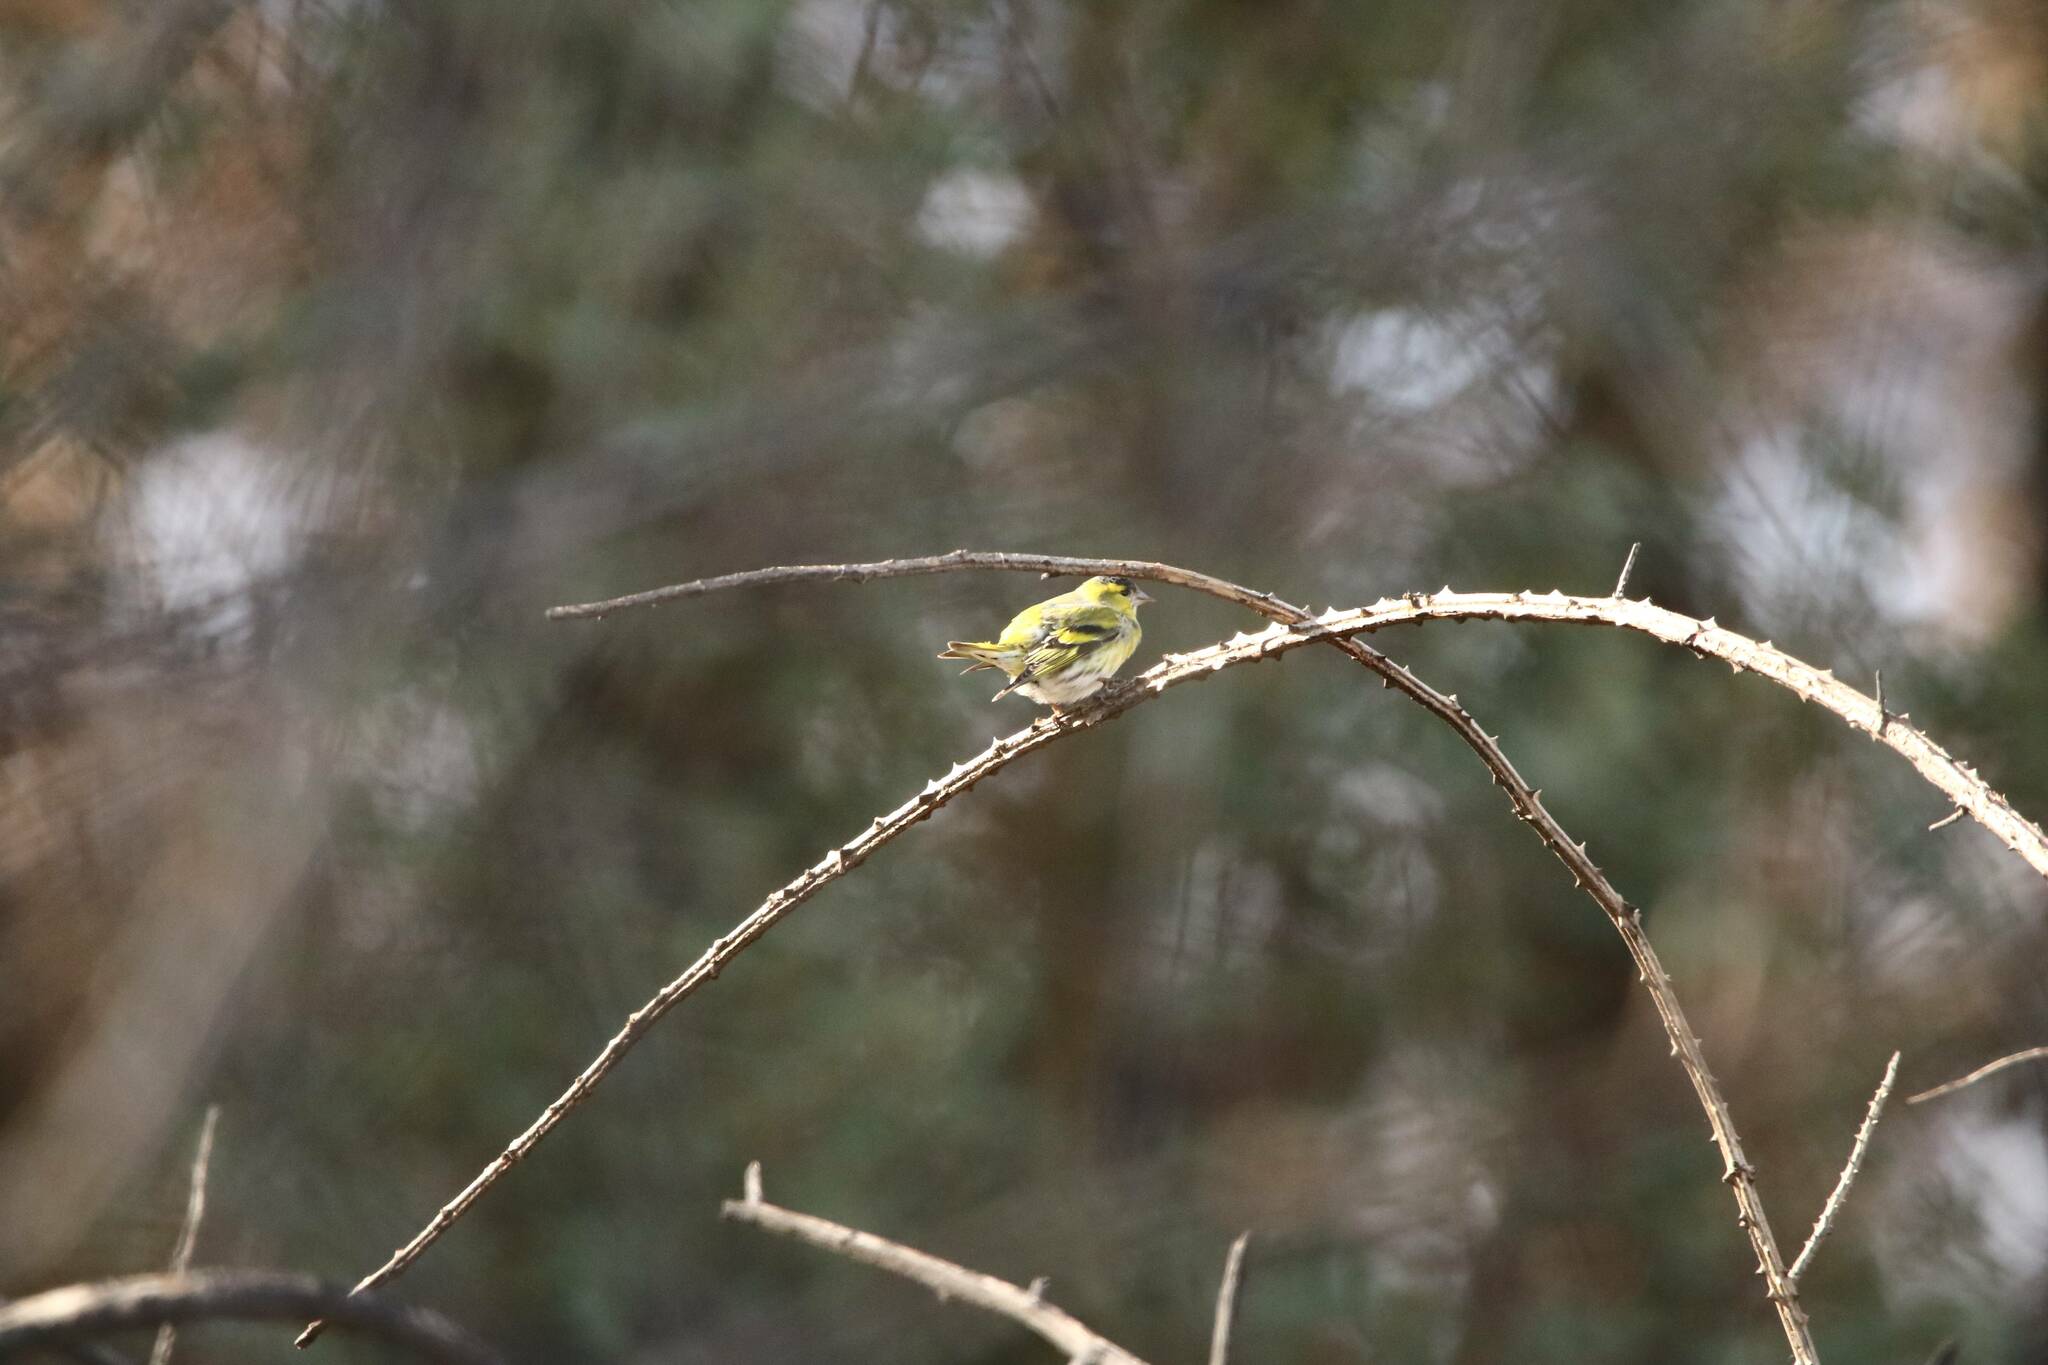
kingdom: Animalia
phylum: Chordata
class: Aves
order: Passeriformes
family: Fringillidae
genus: Spinus
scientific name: Spinus spinus
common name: Eurasian siskin
